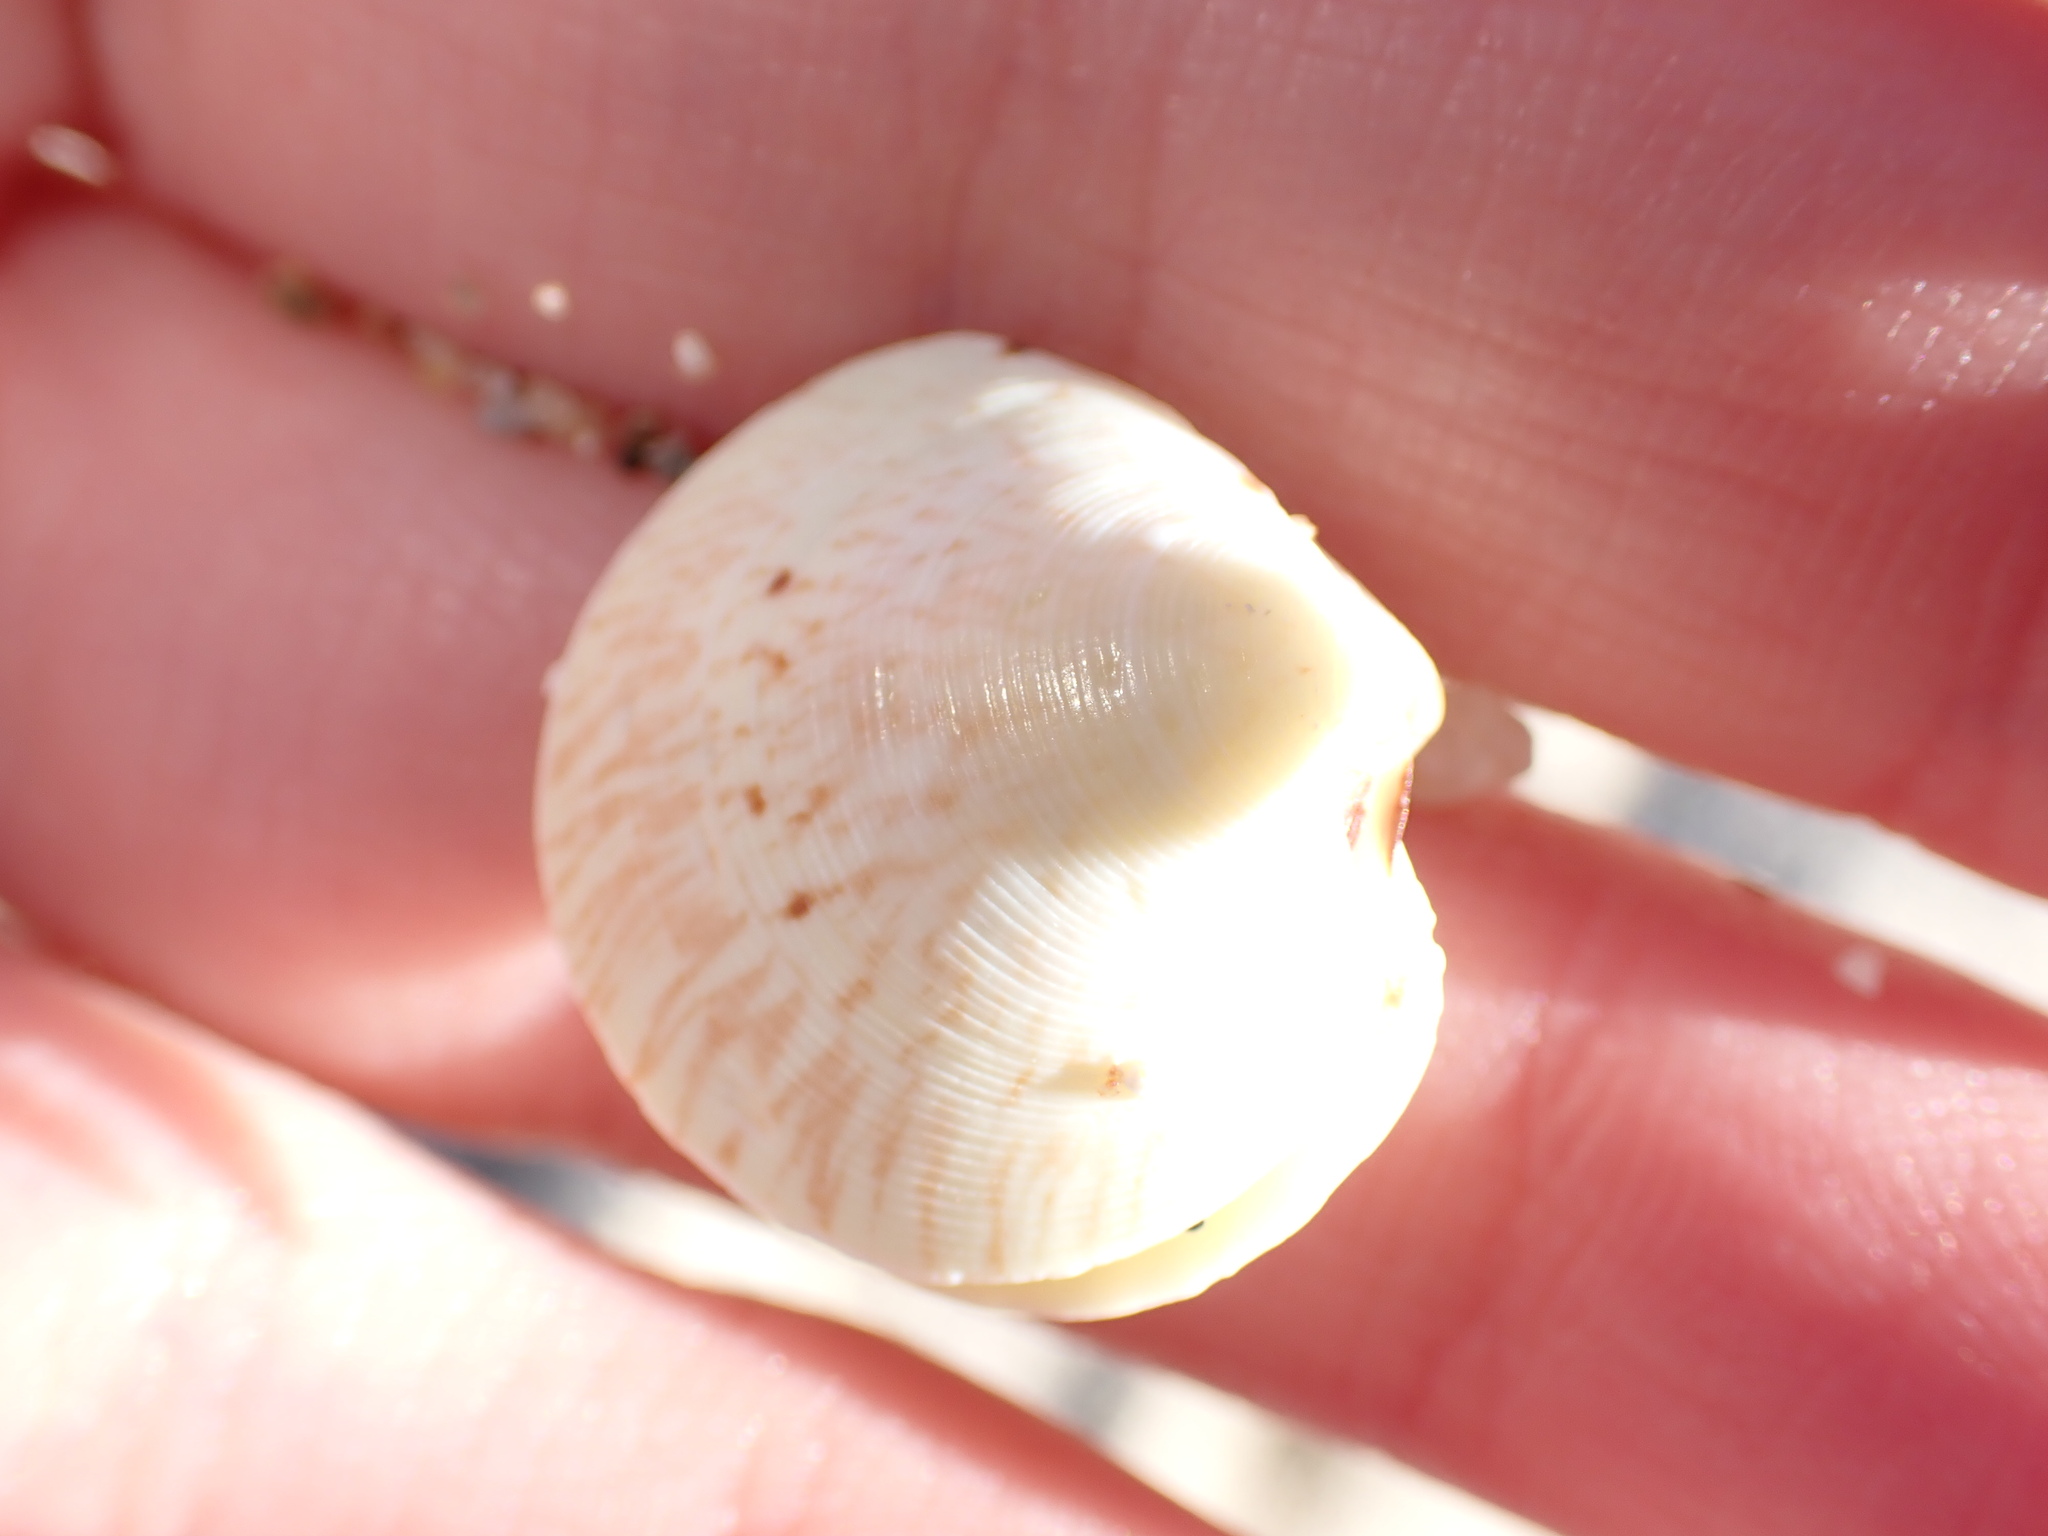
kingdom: Animalia
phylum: Mollusca
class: Bivalvia
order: Venerida
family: Veneridae
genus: Dosinia
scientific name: Dosinia exoleta
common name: Rayed artemis
